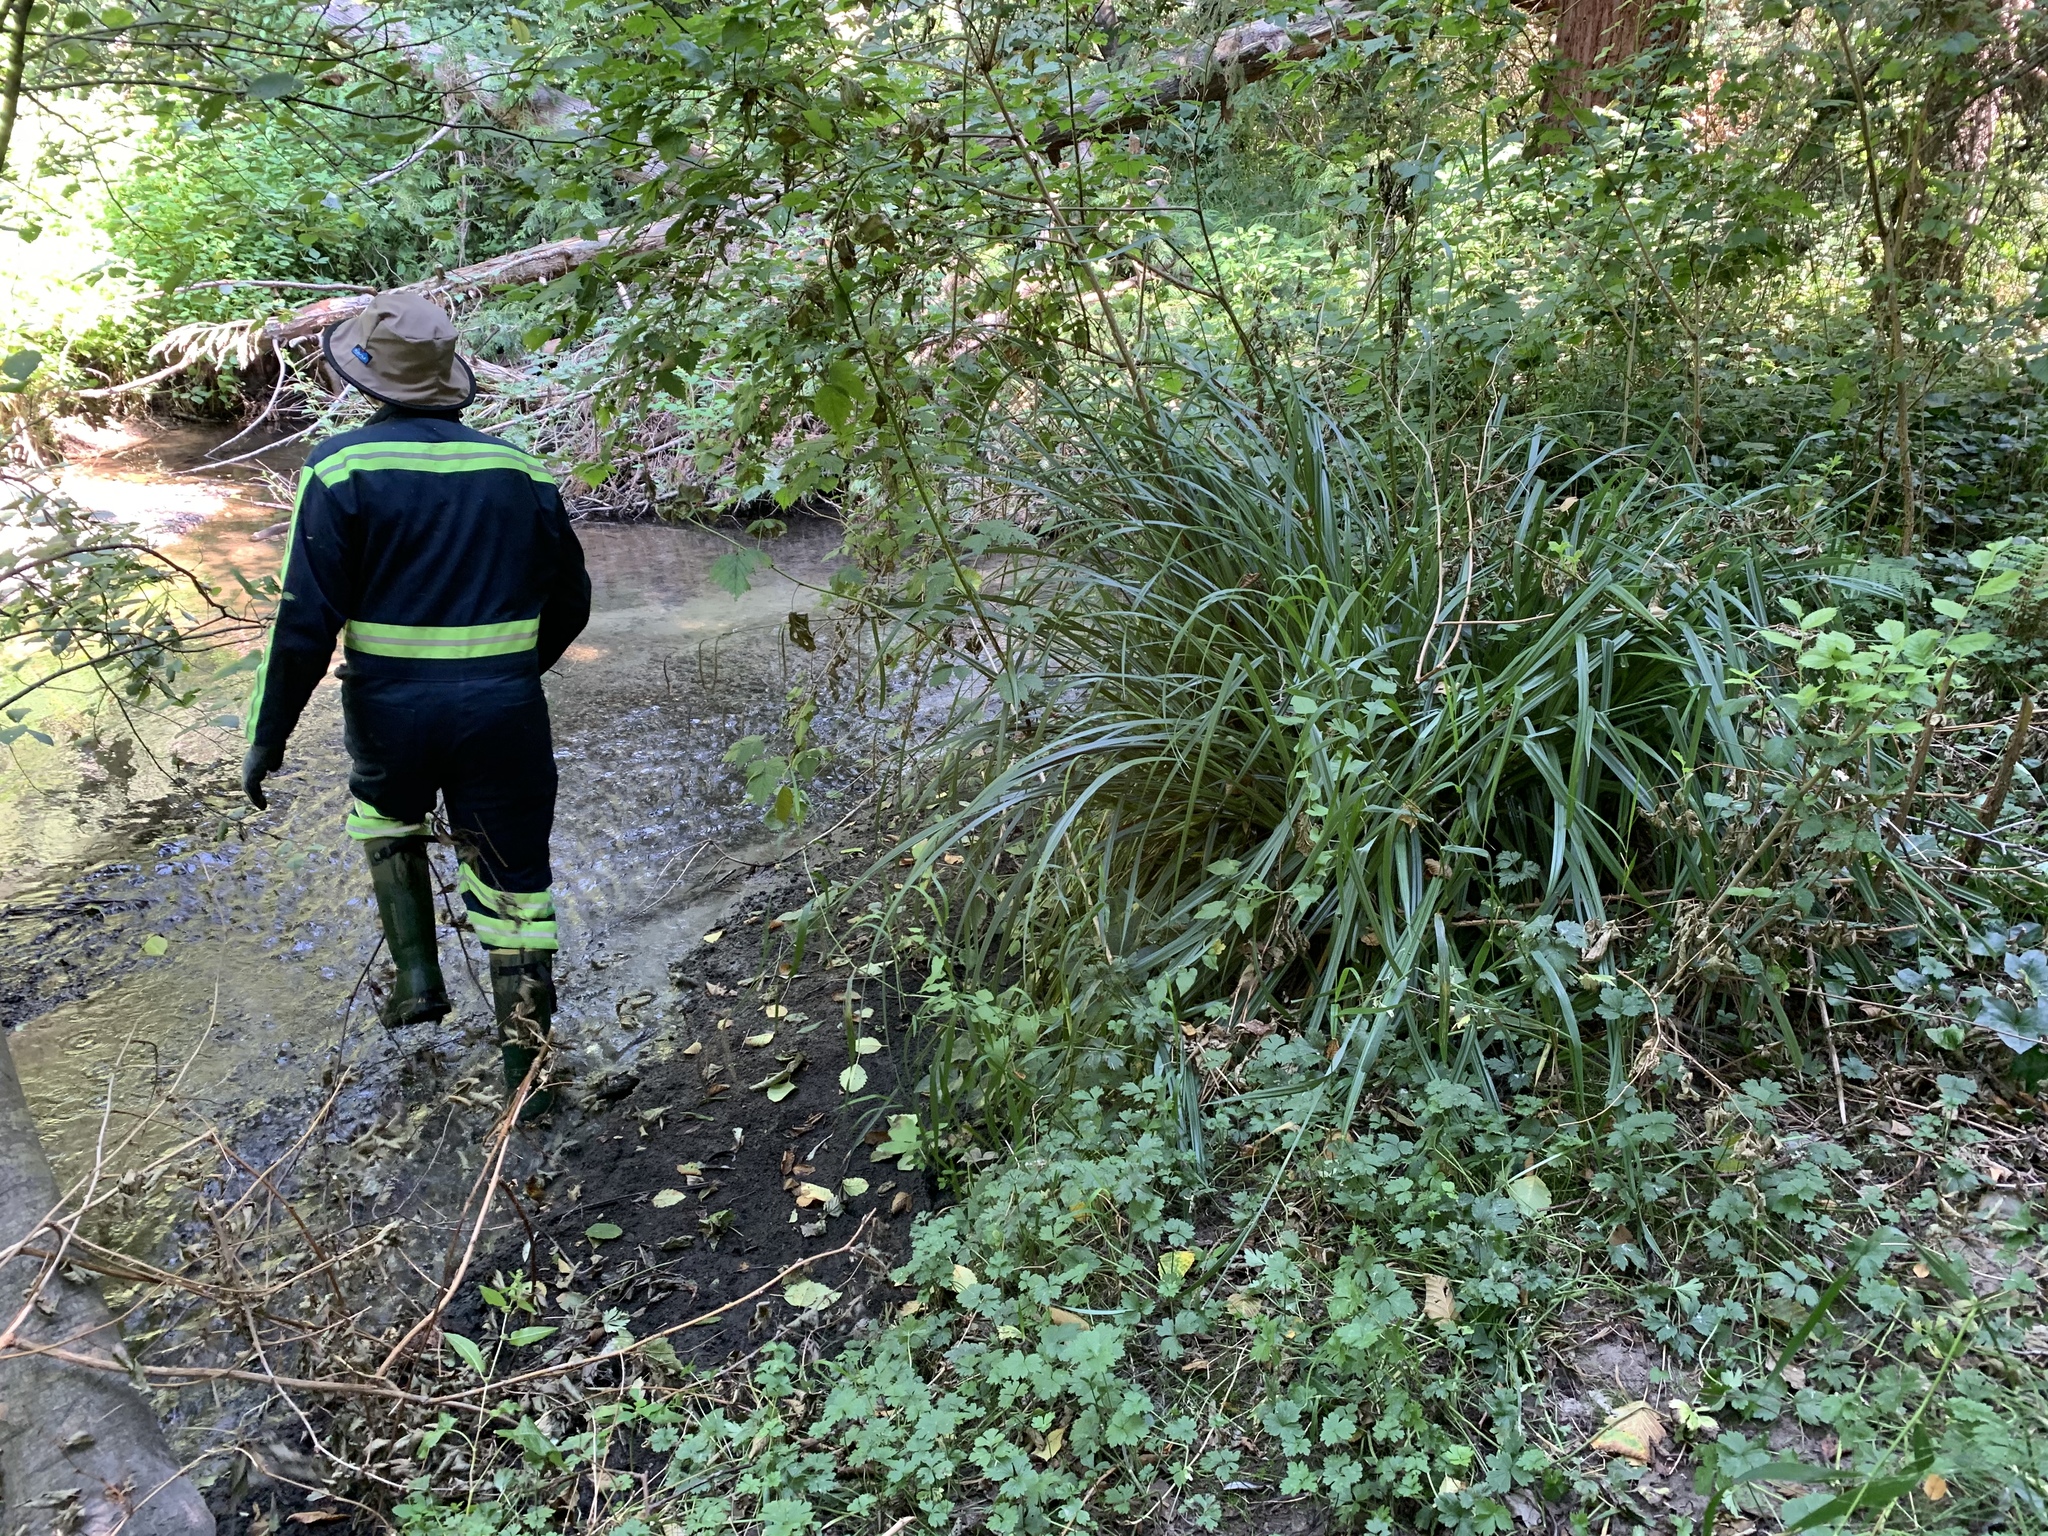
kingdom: Plantae
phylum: Tracheophyta
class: Liliopsida
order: Poales
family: Cyperaceae
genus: Carex
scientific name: Carex pendula
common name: Pendulous sedge
